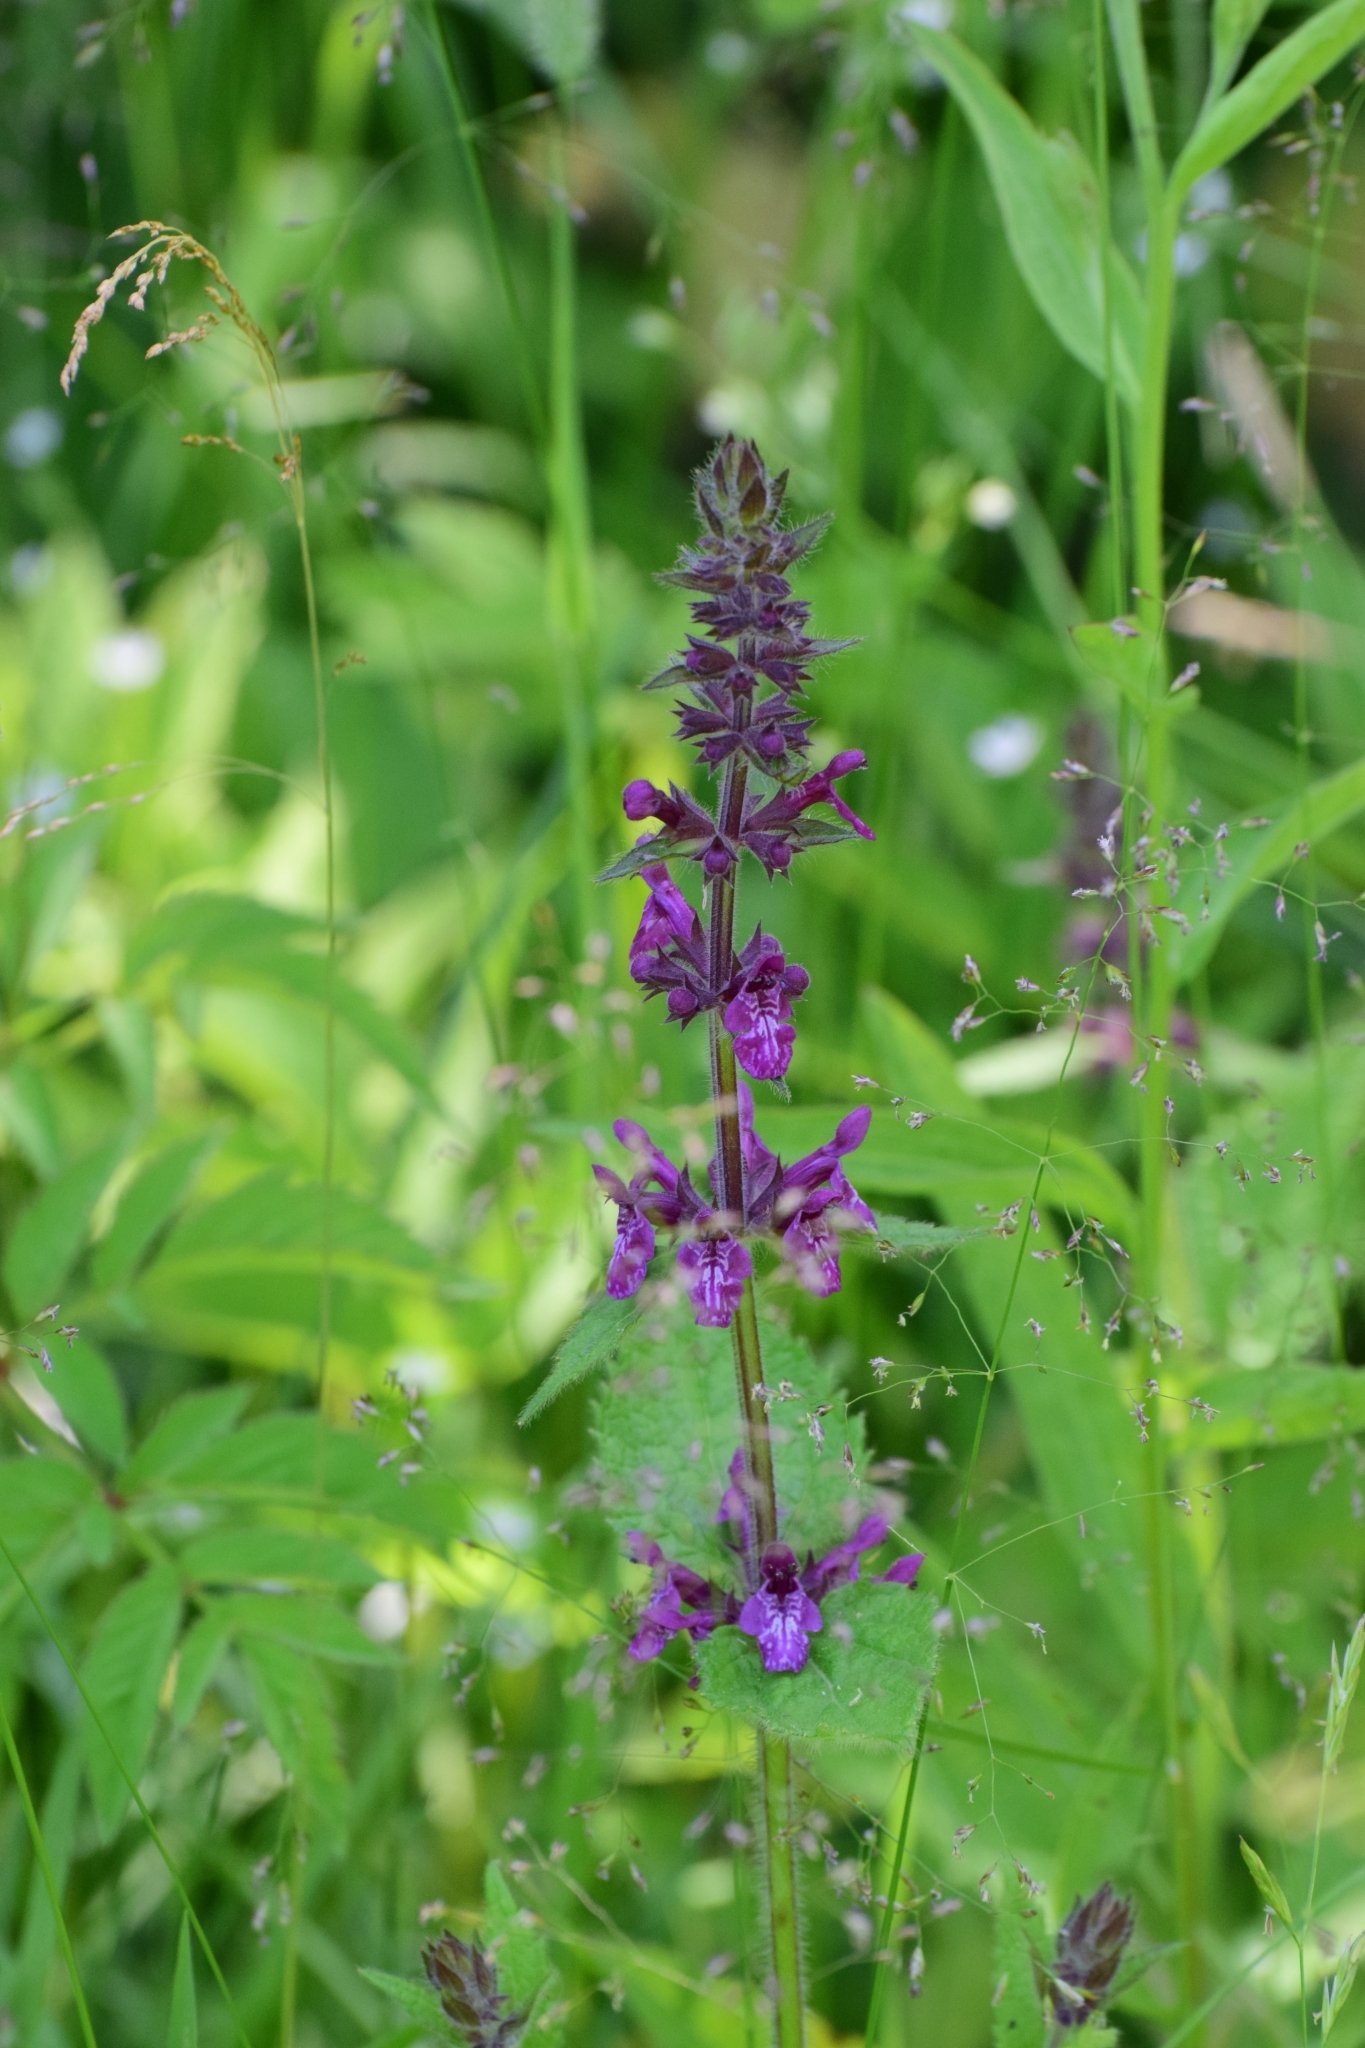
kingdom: Plantae
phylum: Tracheophyta
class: Magnoliopsida
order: Lamiales
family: Lamiaceae
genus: Stachys
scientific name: Stachys sylvatica
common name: Hedge woundwort
